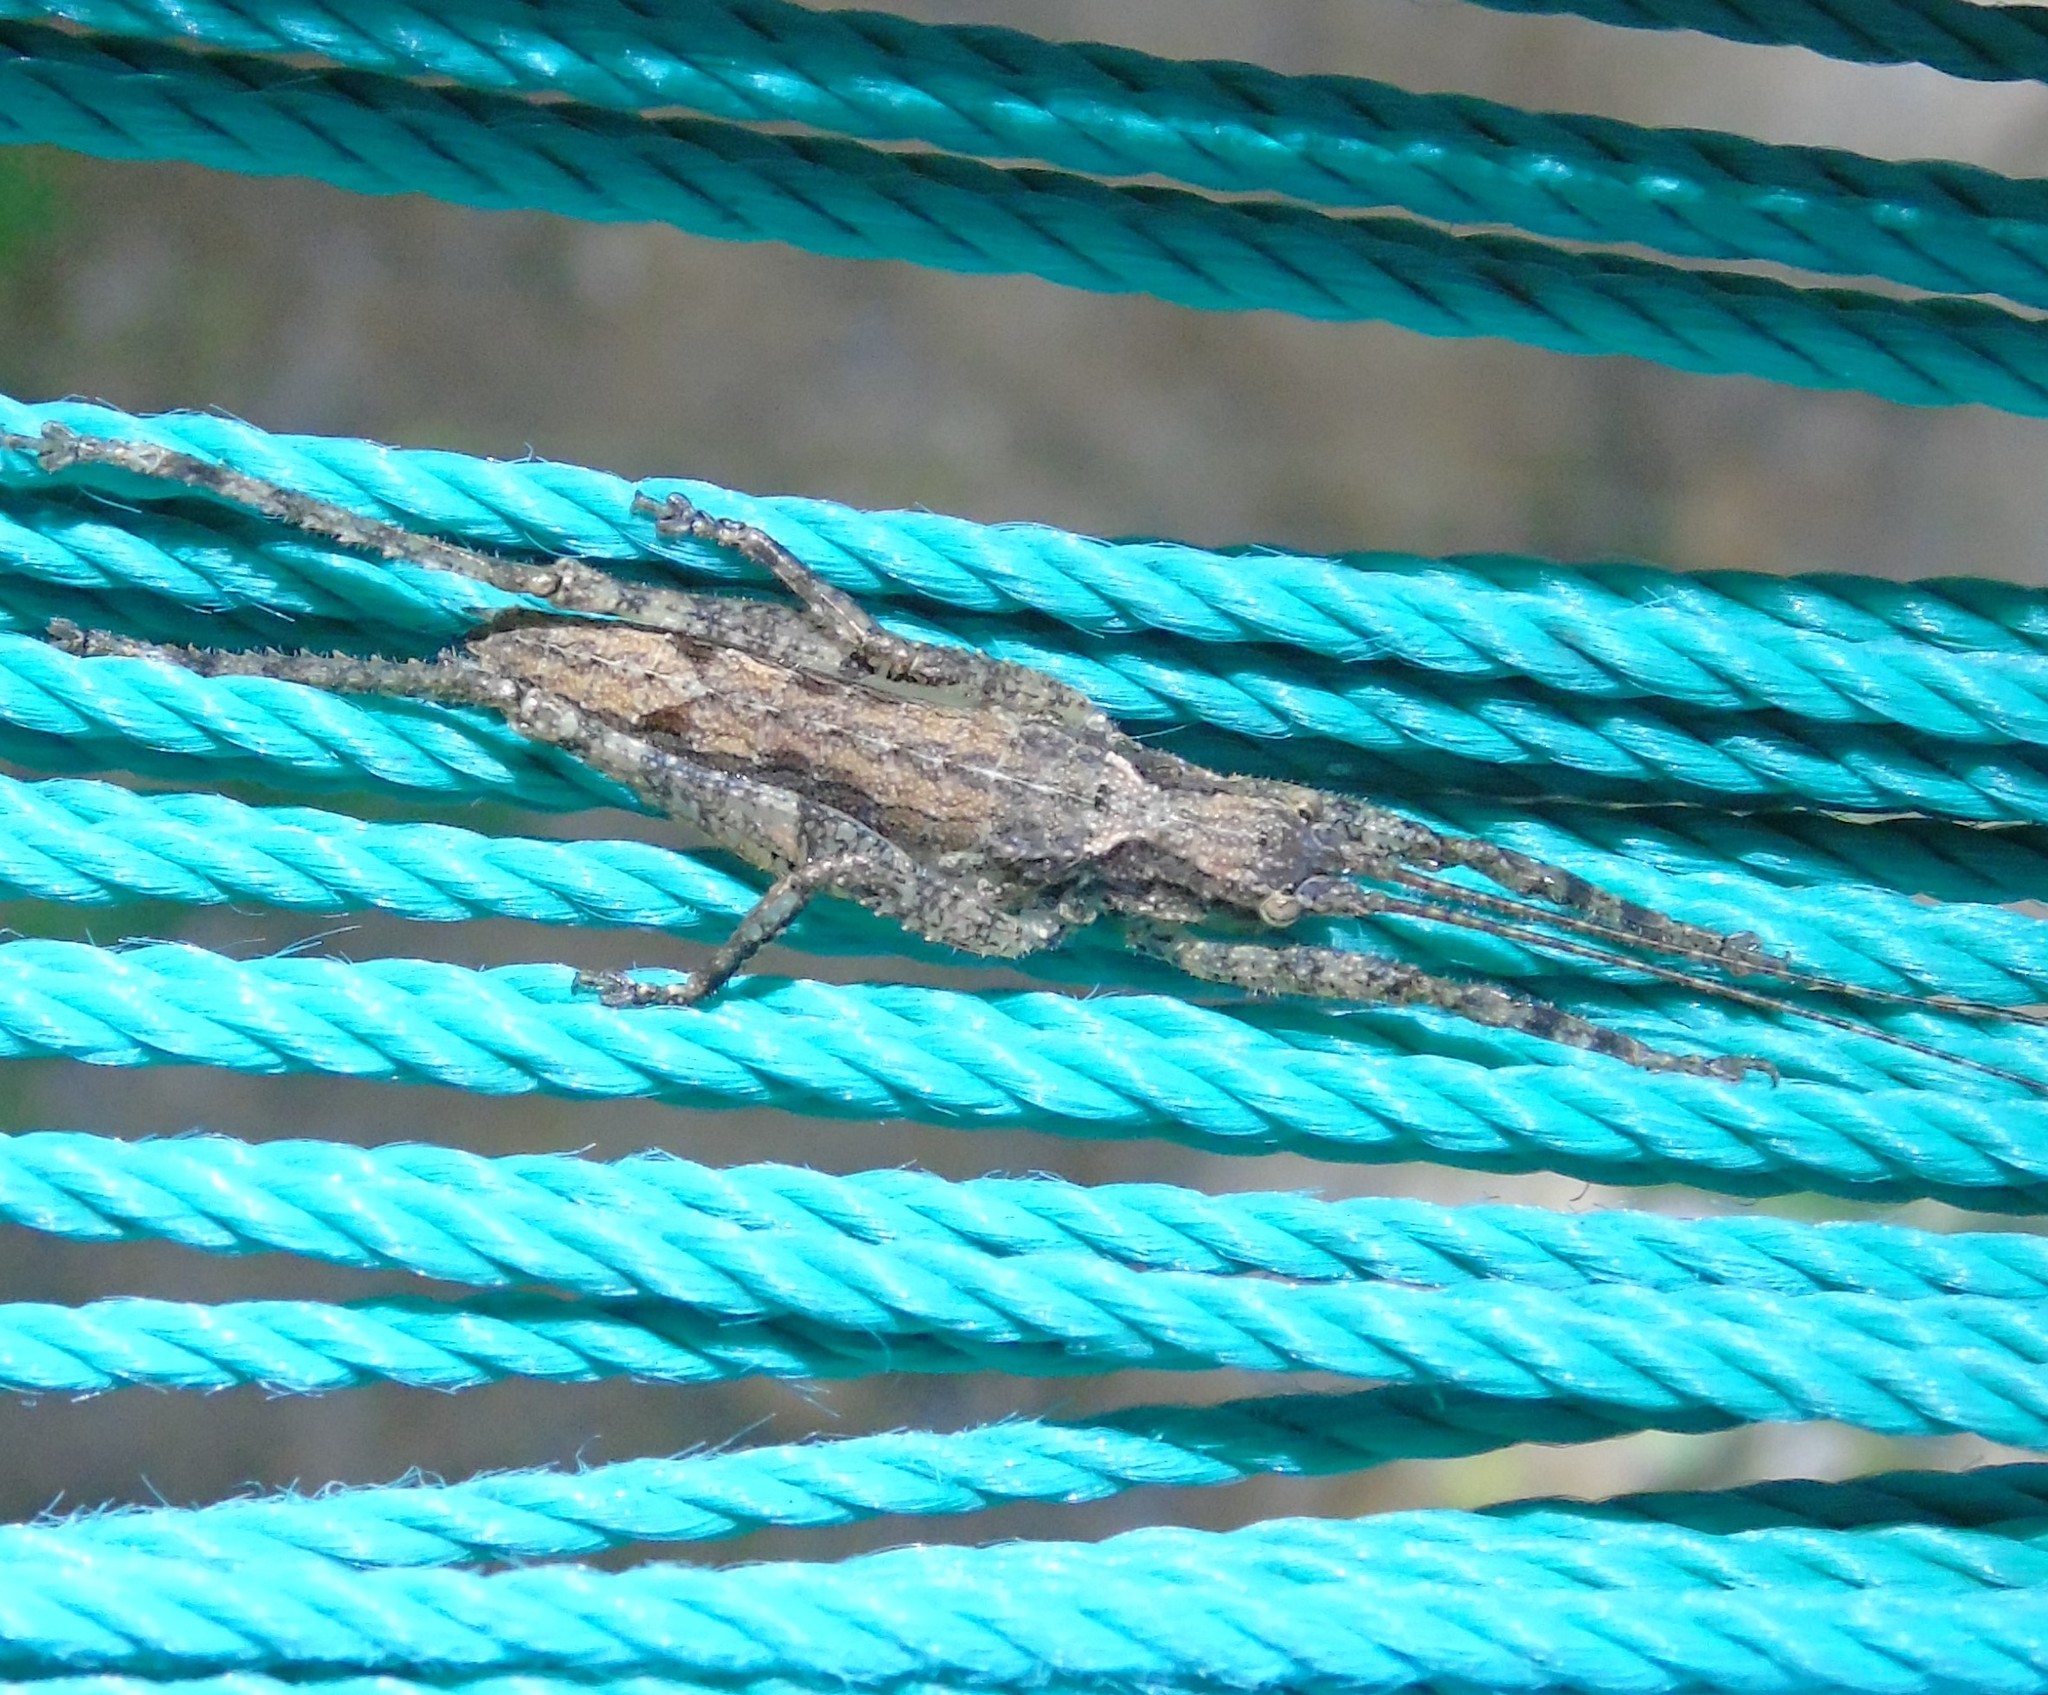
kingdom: Animalia
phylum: Arthropoda
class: Insecta
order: Orthoptera
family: Tettigoniidae
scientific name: Tettigoniidae
